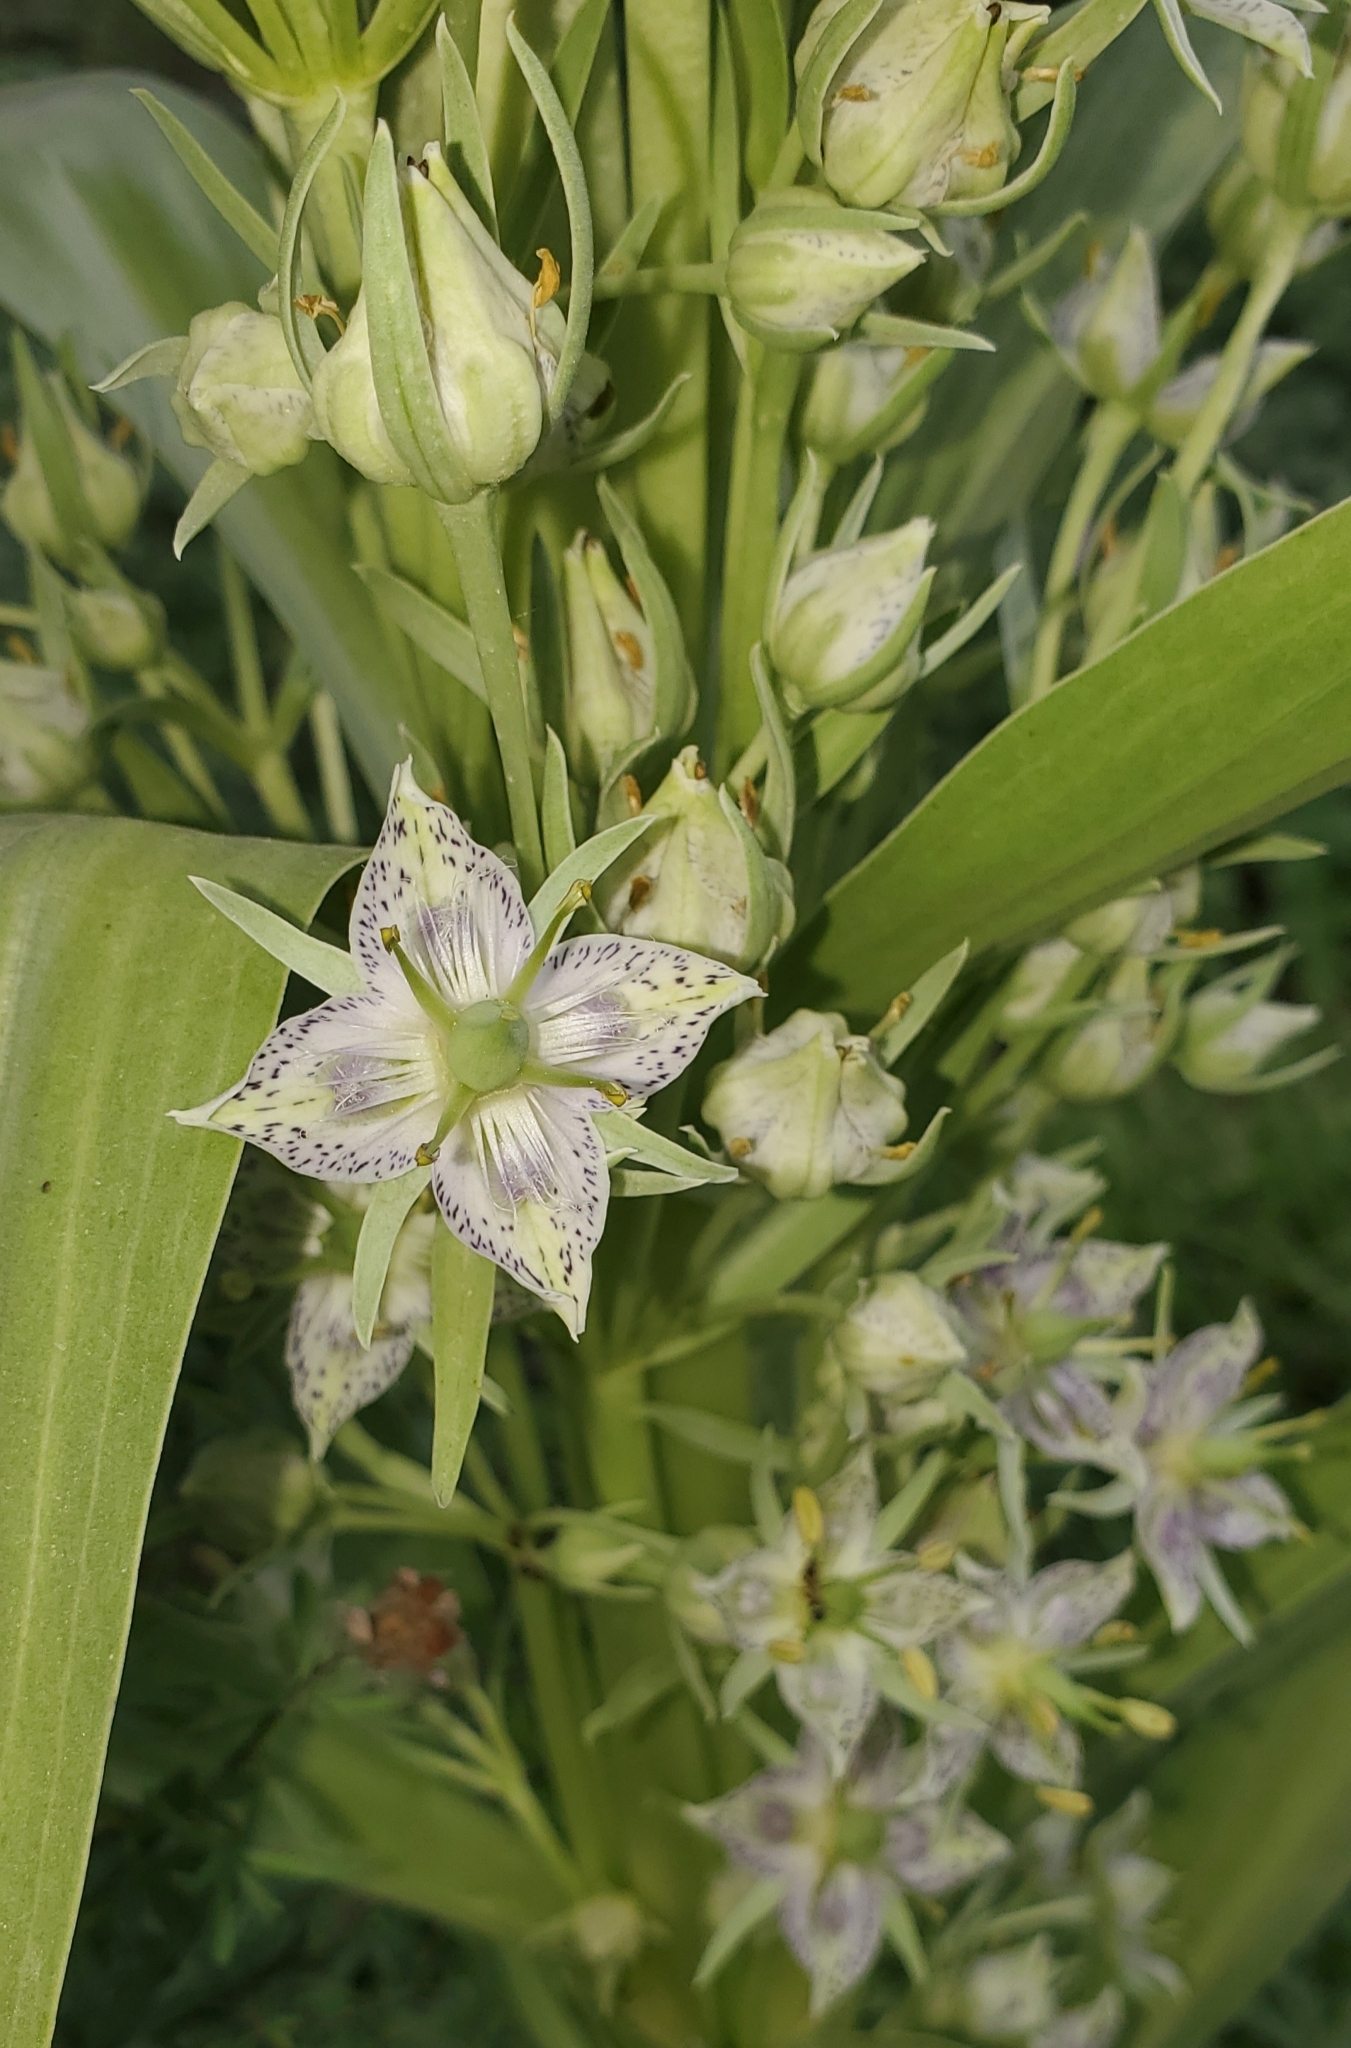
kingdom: Plantae
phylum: Tracheophyta
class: Magnoliopsida
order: Gentianales
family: Gentianaceae
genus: Frasera
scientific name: Frasera speciosa
